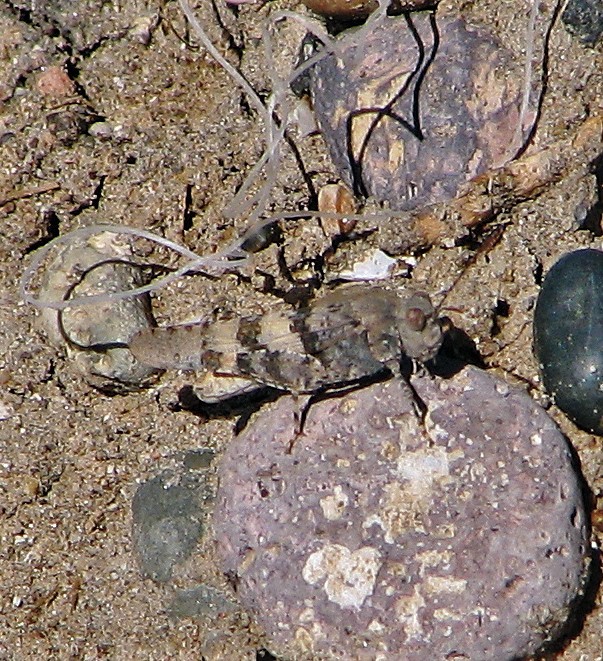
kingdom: Animalia
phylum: Arthropoda
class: Insecta
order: Orthoptera
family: Acrididae
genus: Trimerotropis
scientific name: Trimerotropis pallidipennis
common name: Pallid-winged grasshopper
